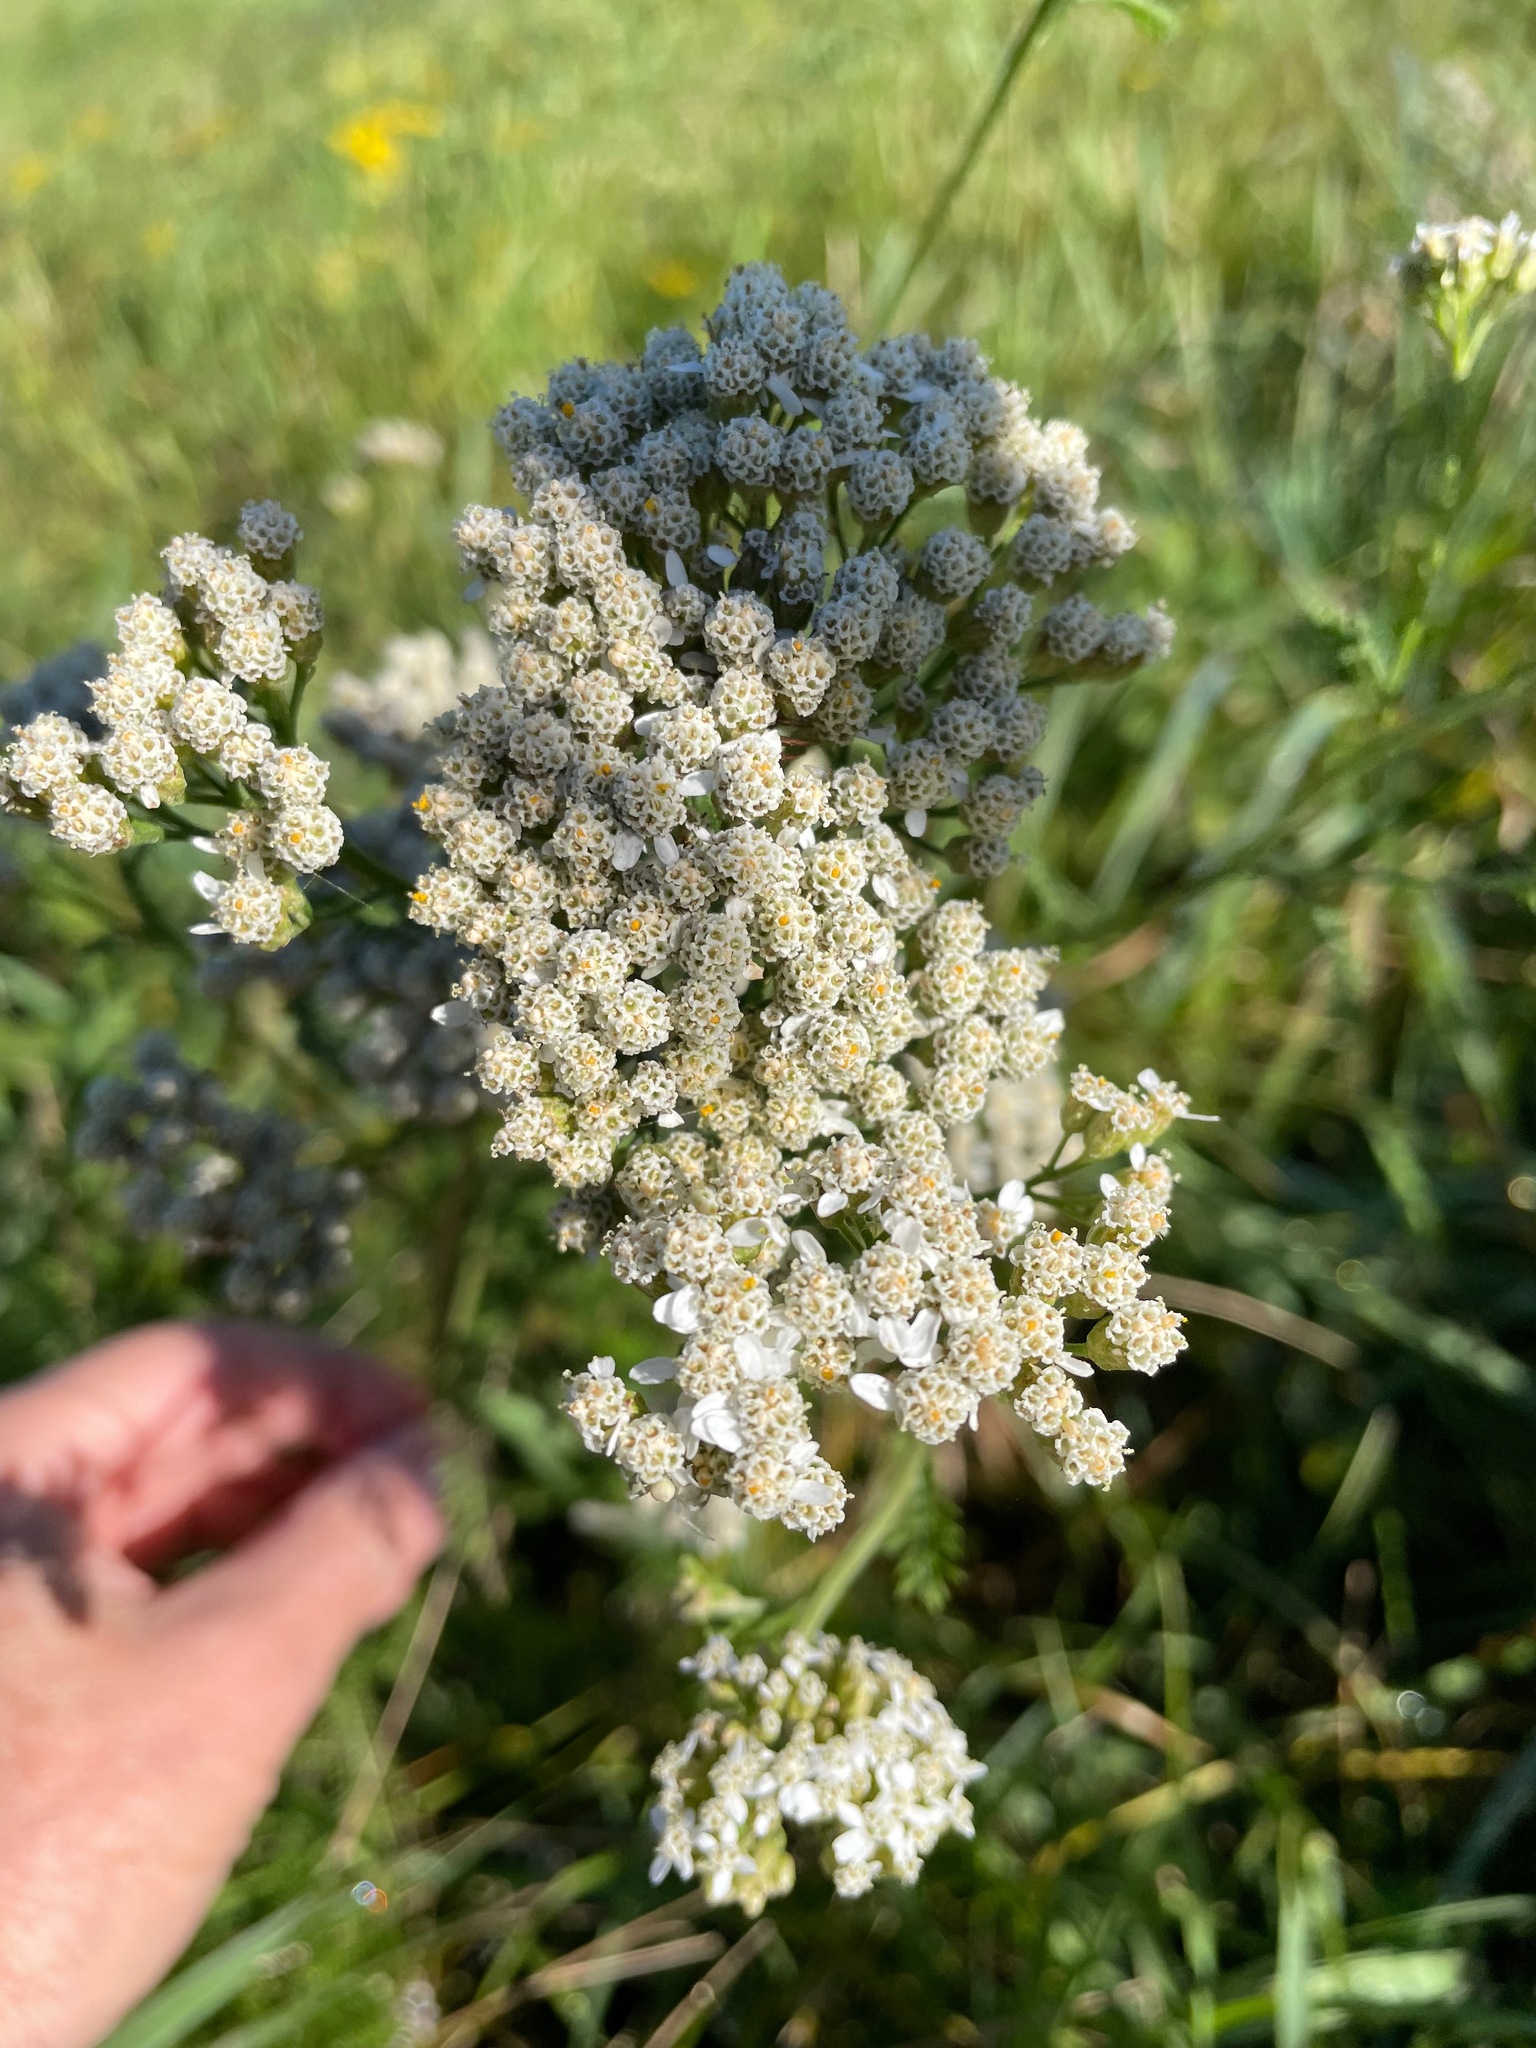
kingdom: Plantae
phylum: Tracheophyta
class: Magnoliopsida
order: Asterales
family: Asteraceae
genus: Achillea
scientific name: Achillea millefolium
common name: Yarrow
